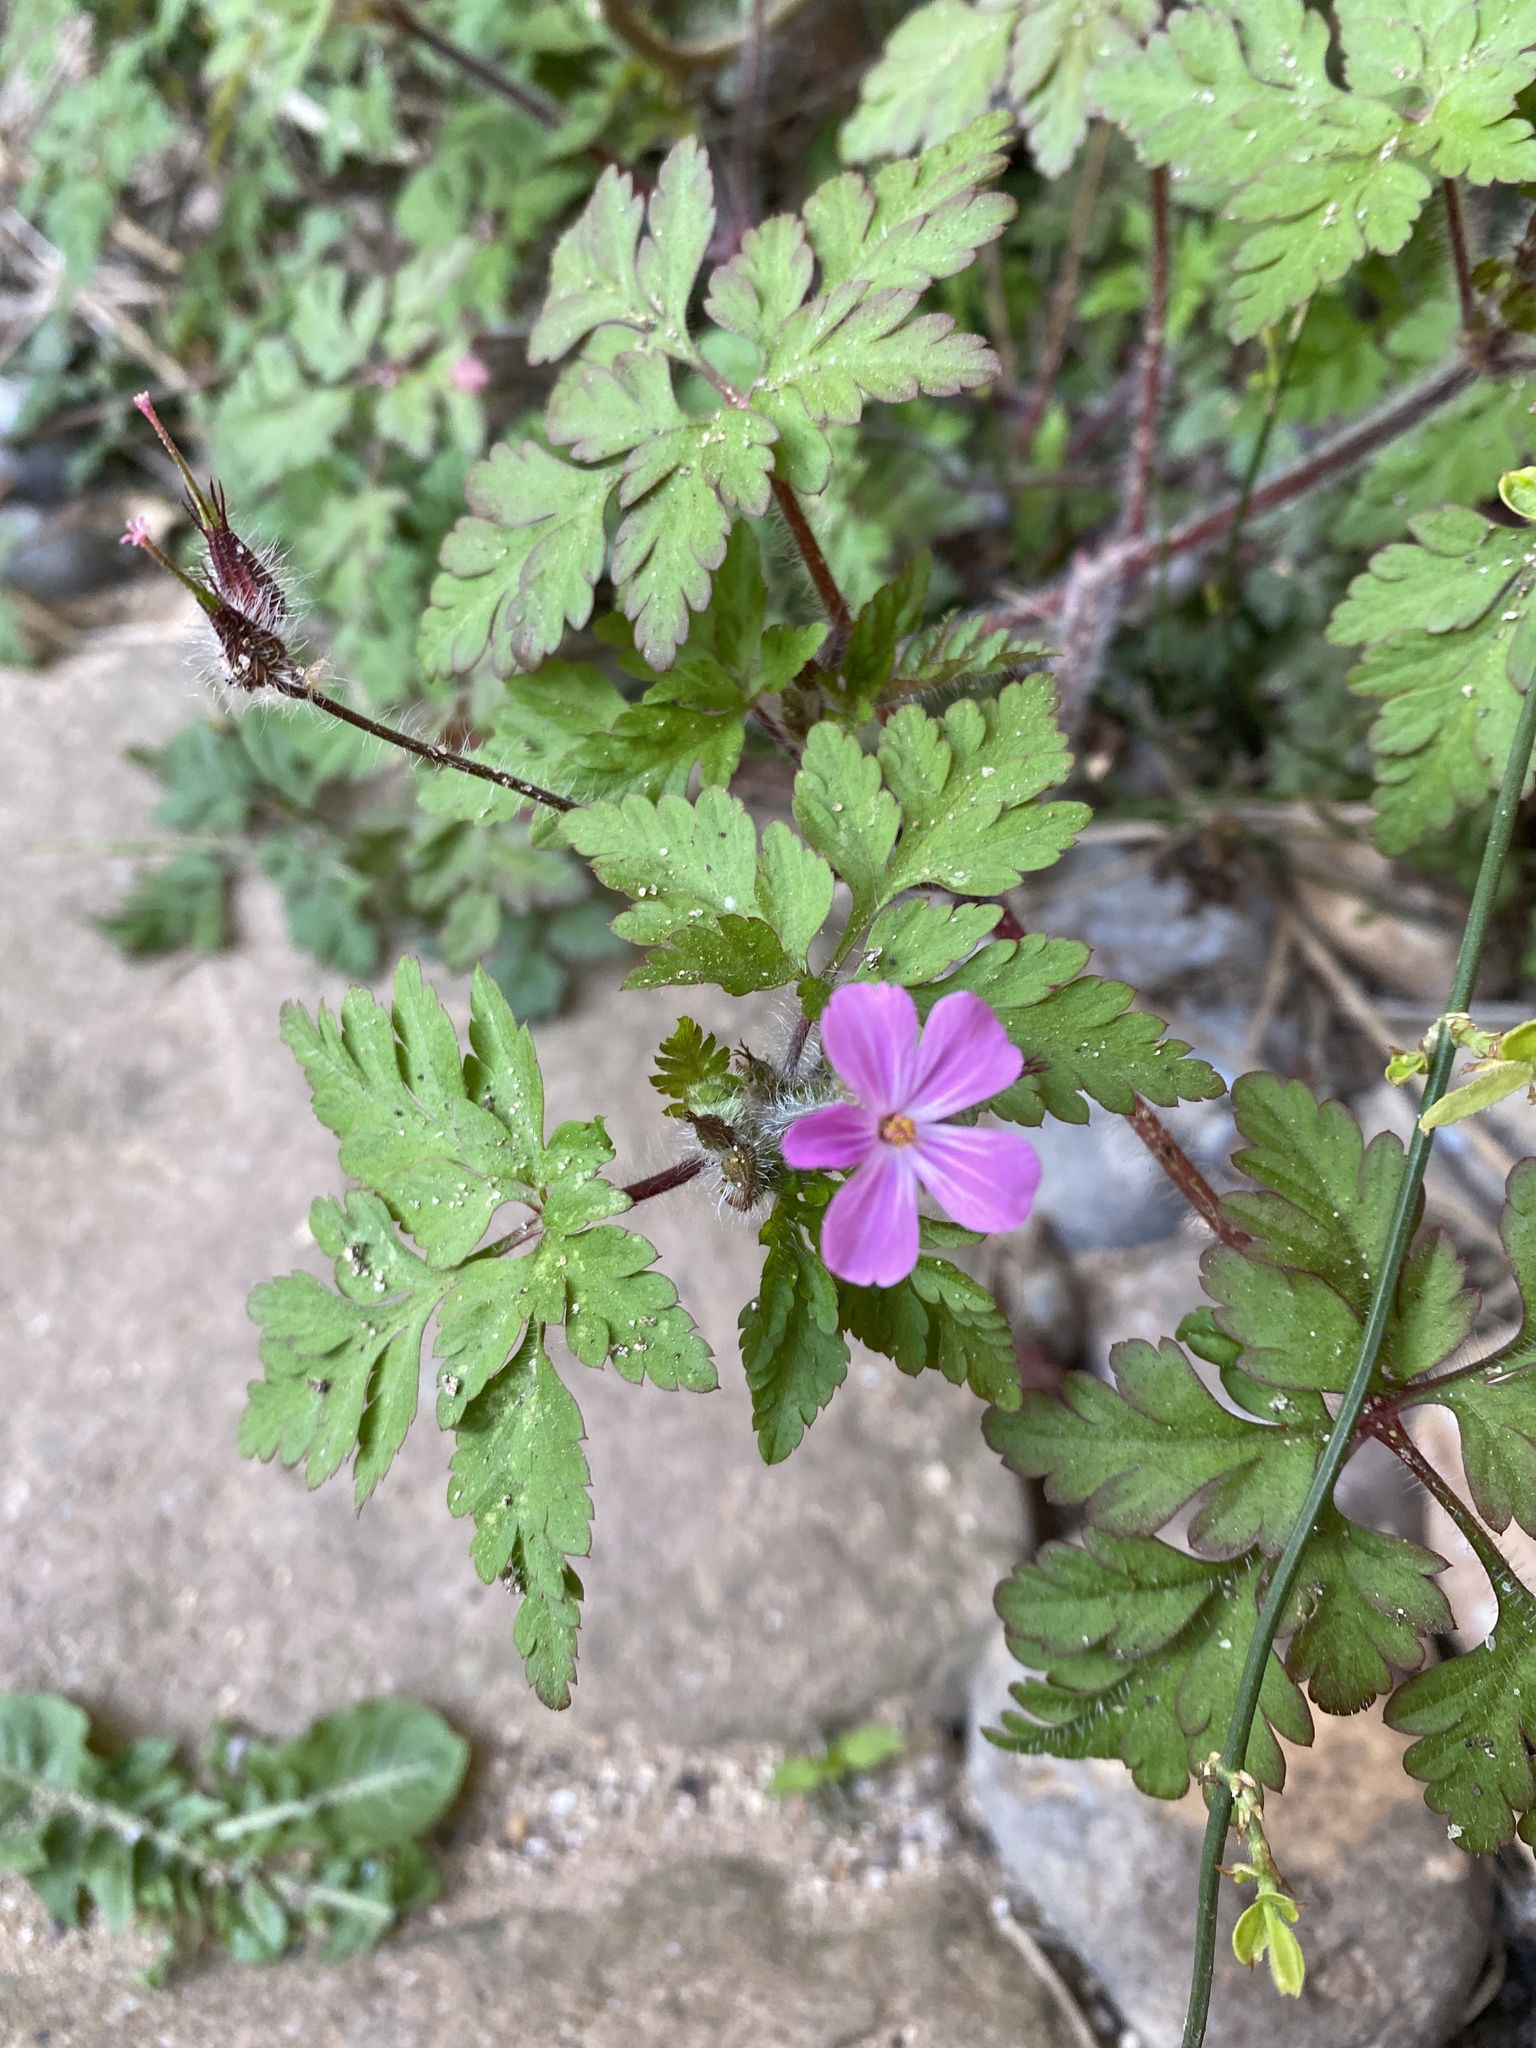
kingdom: Plantae
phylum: Tracheophyta
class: Magnoliopsida
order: Geraniales
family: Geraniaceae
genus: Geranium
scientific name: Geranium robertianum
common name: Herb-robert
